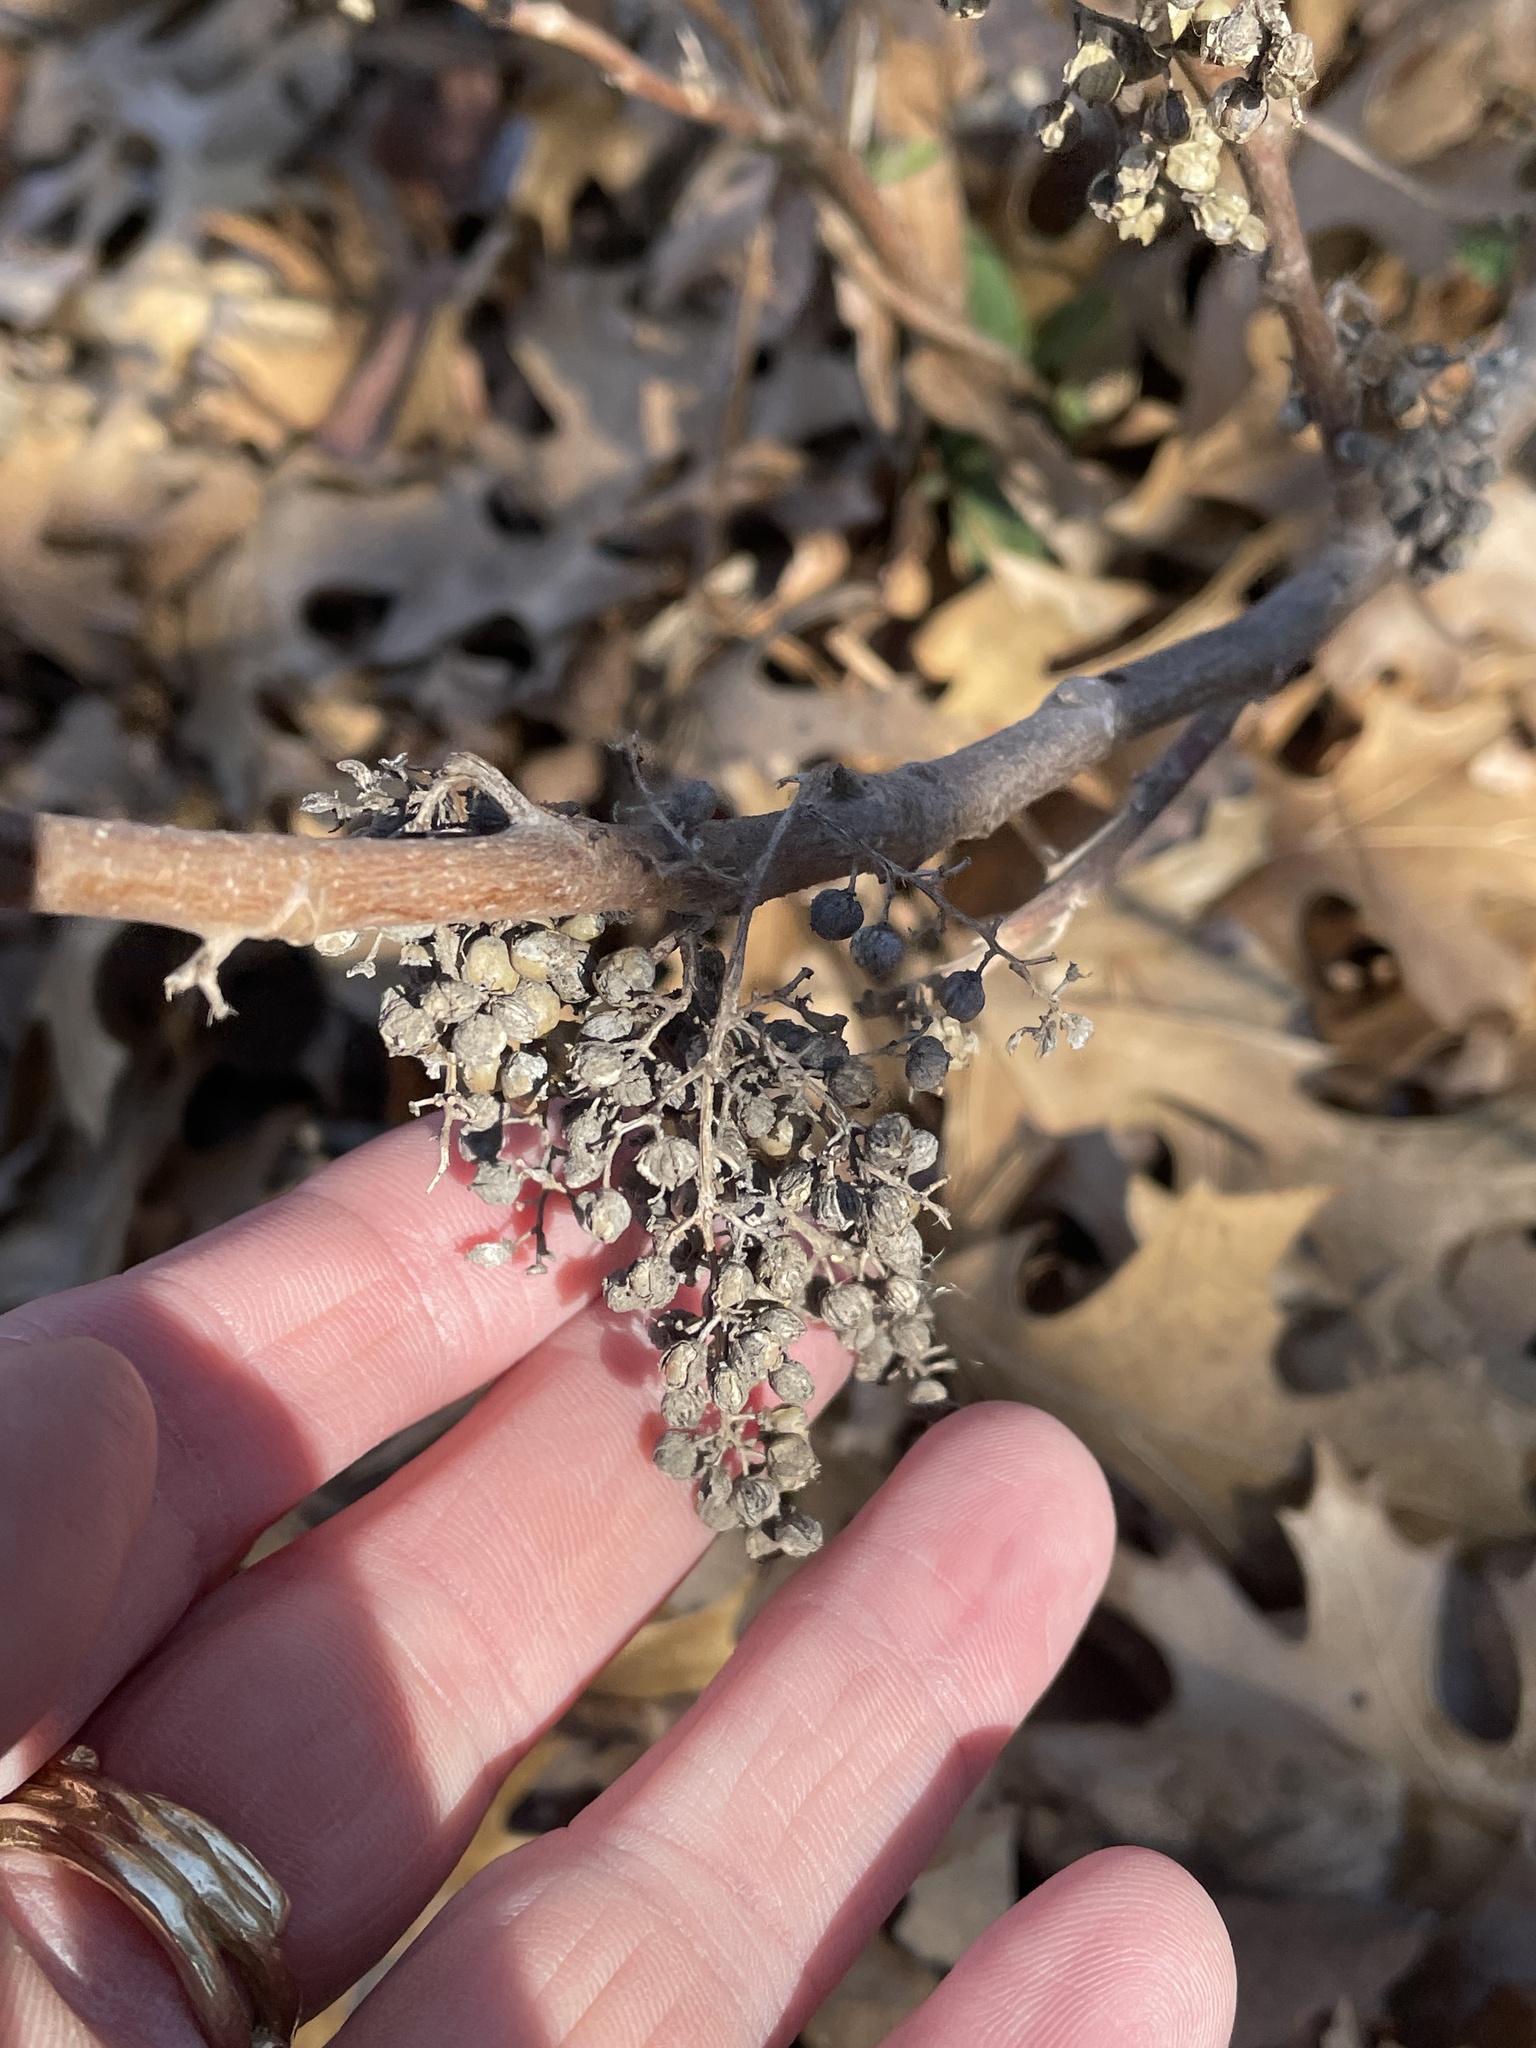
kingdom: Plantae
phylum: Tracheophyta
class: Magnoliopsida
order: Sapindales
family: Anacardiaceae
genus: Toxicodendron
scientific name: Toxicodendron radicans
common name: Poison ivy
